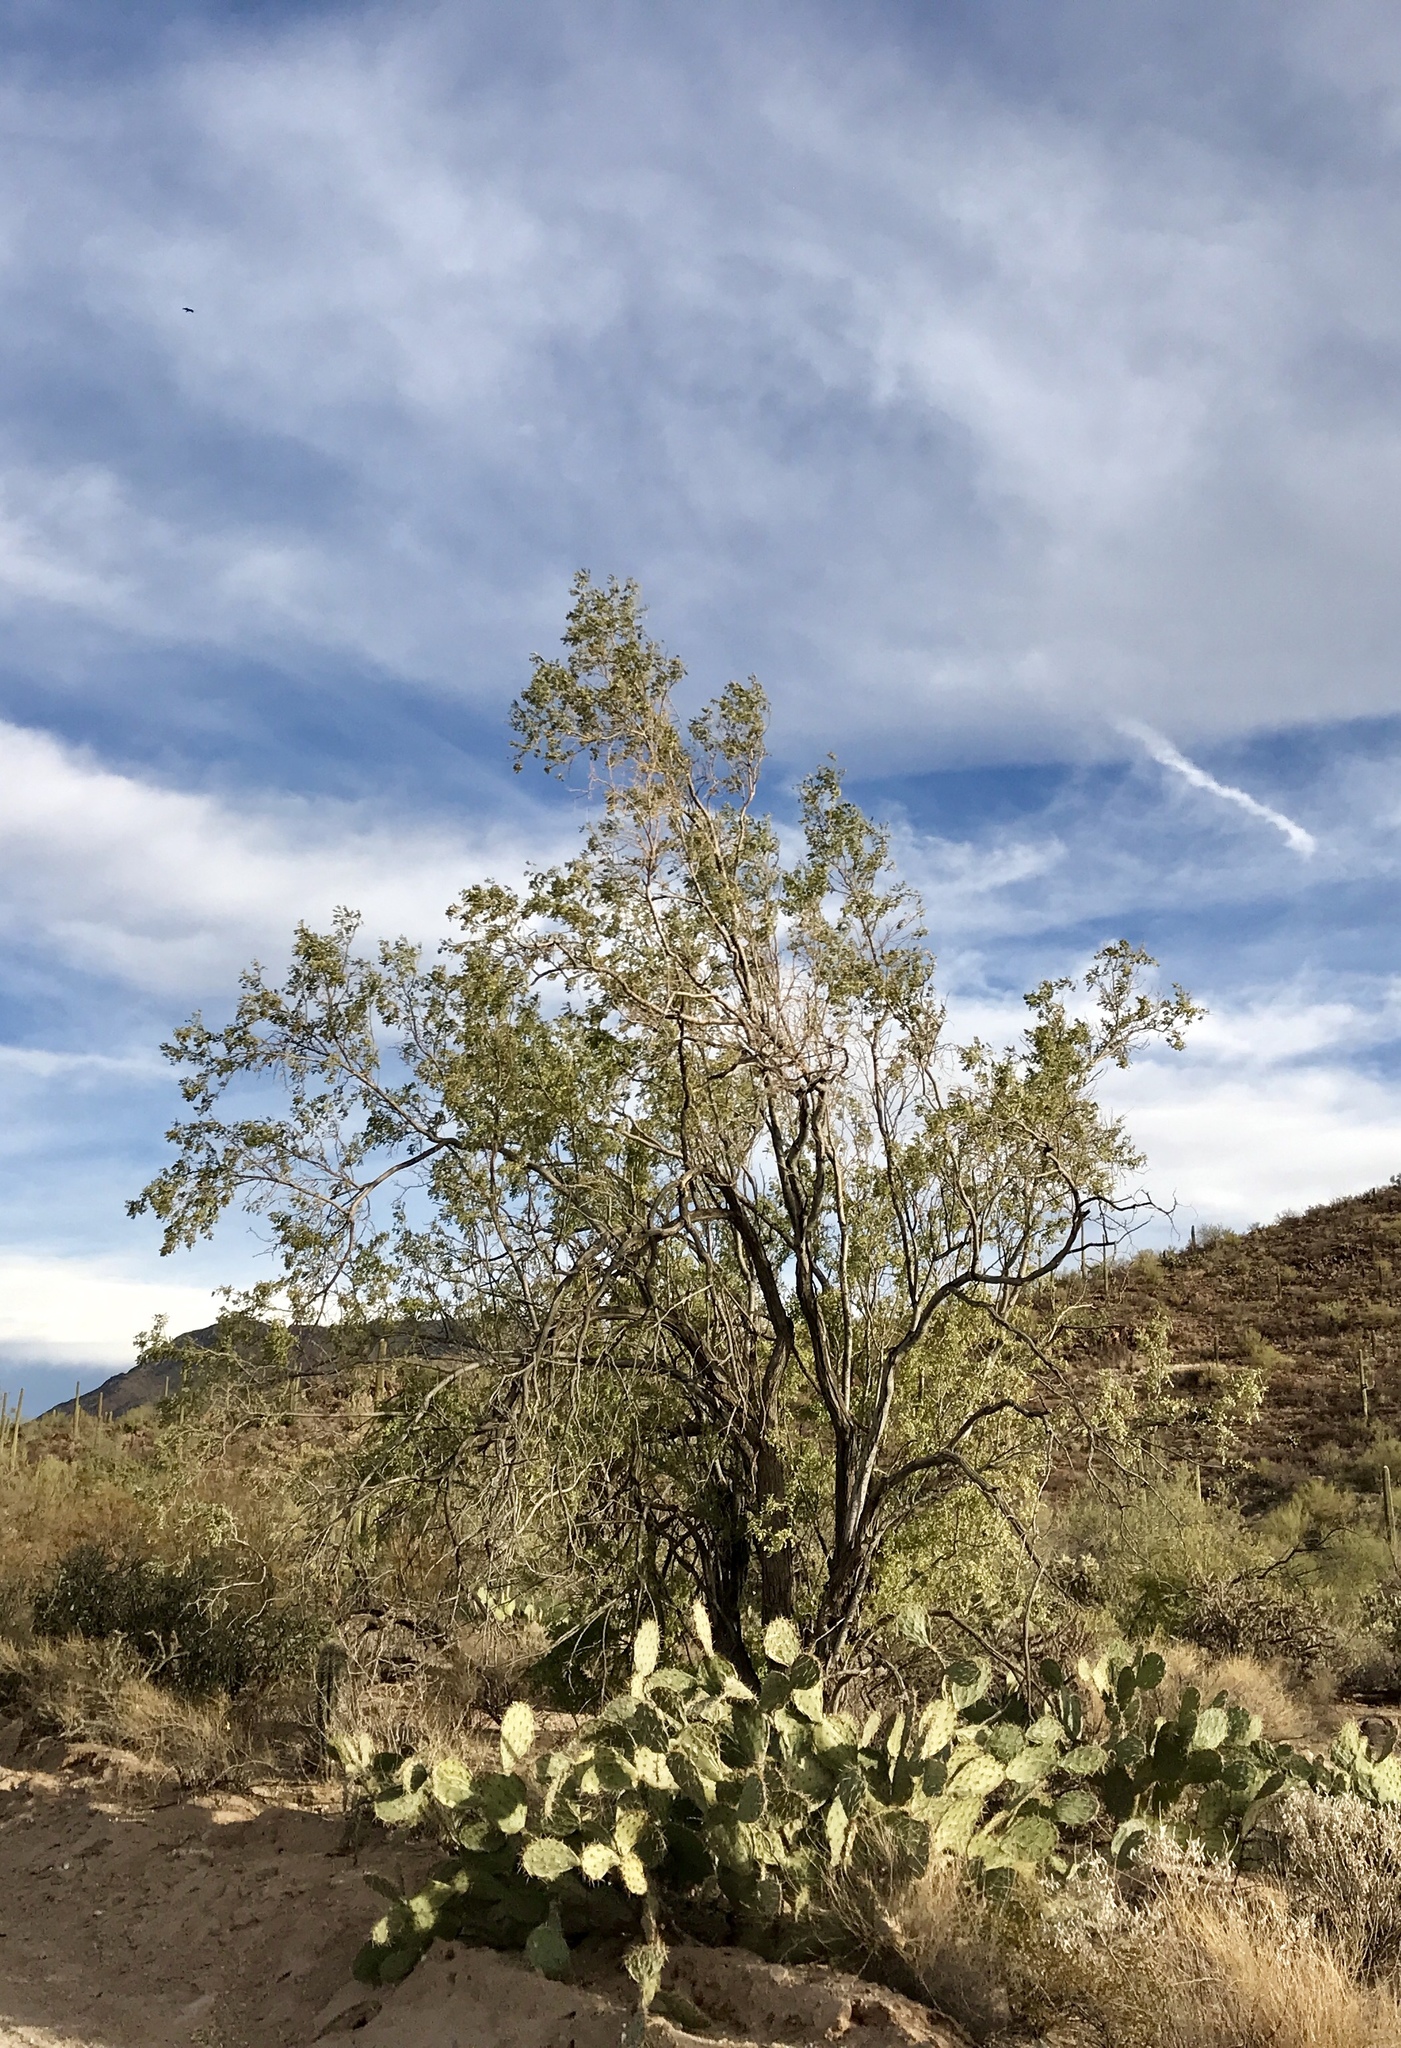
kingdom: Plantae
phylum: Tracheophyta
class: Magnoliopsida
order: Fabales
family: Fabaceae
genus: Olneya
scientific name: Olneya tesota
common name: Desert ironwood
